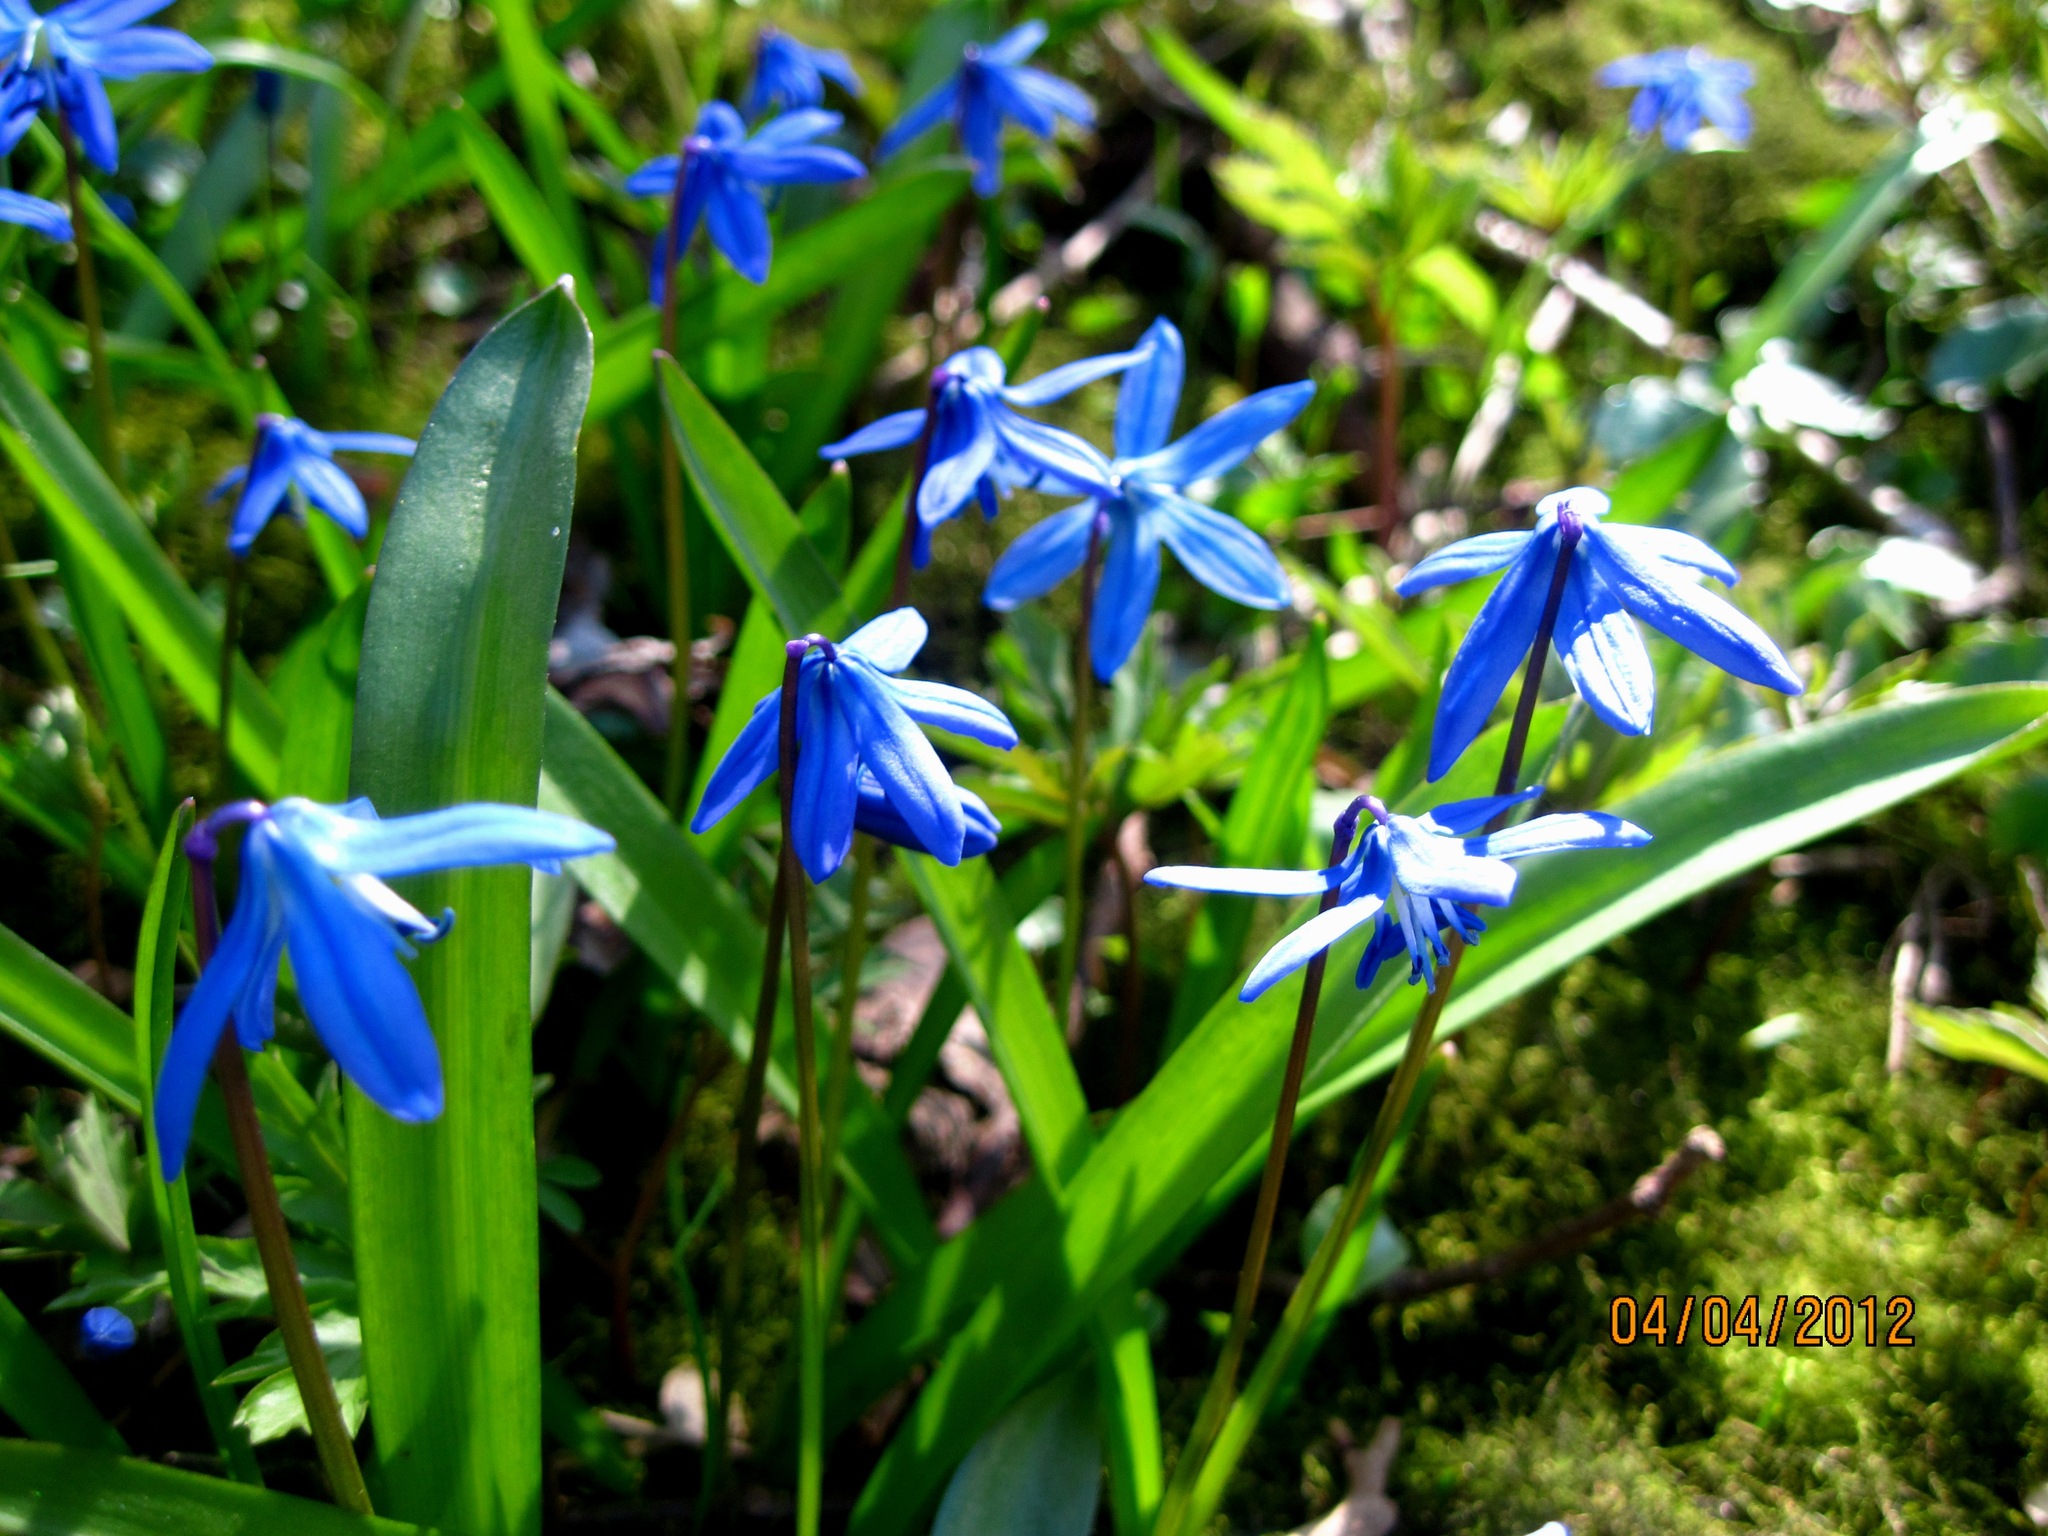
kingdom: Plantae
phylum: Tracheophyta
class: Liliopsida
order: Asparagales
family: Asparagaceae
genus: Scilla
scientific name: Scilla siberica
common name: Siberian squill
